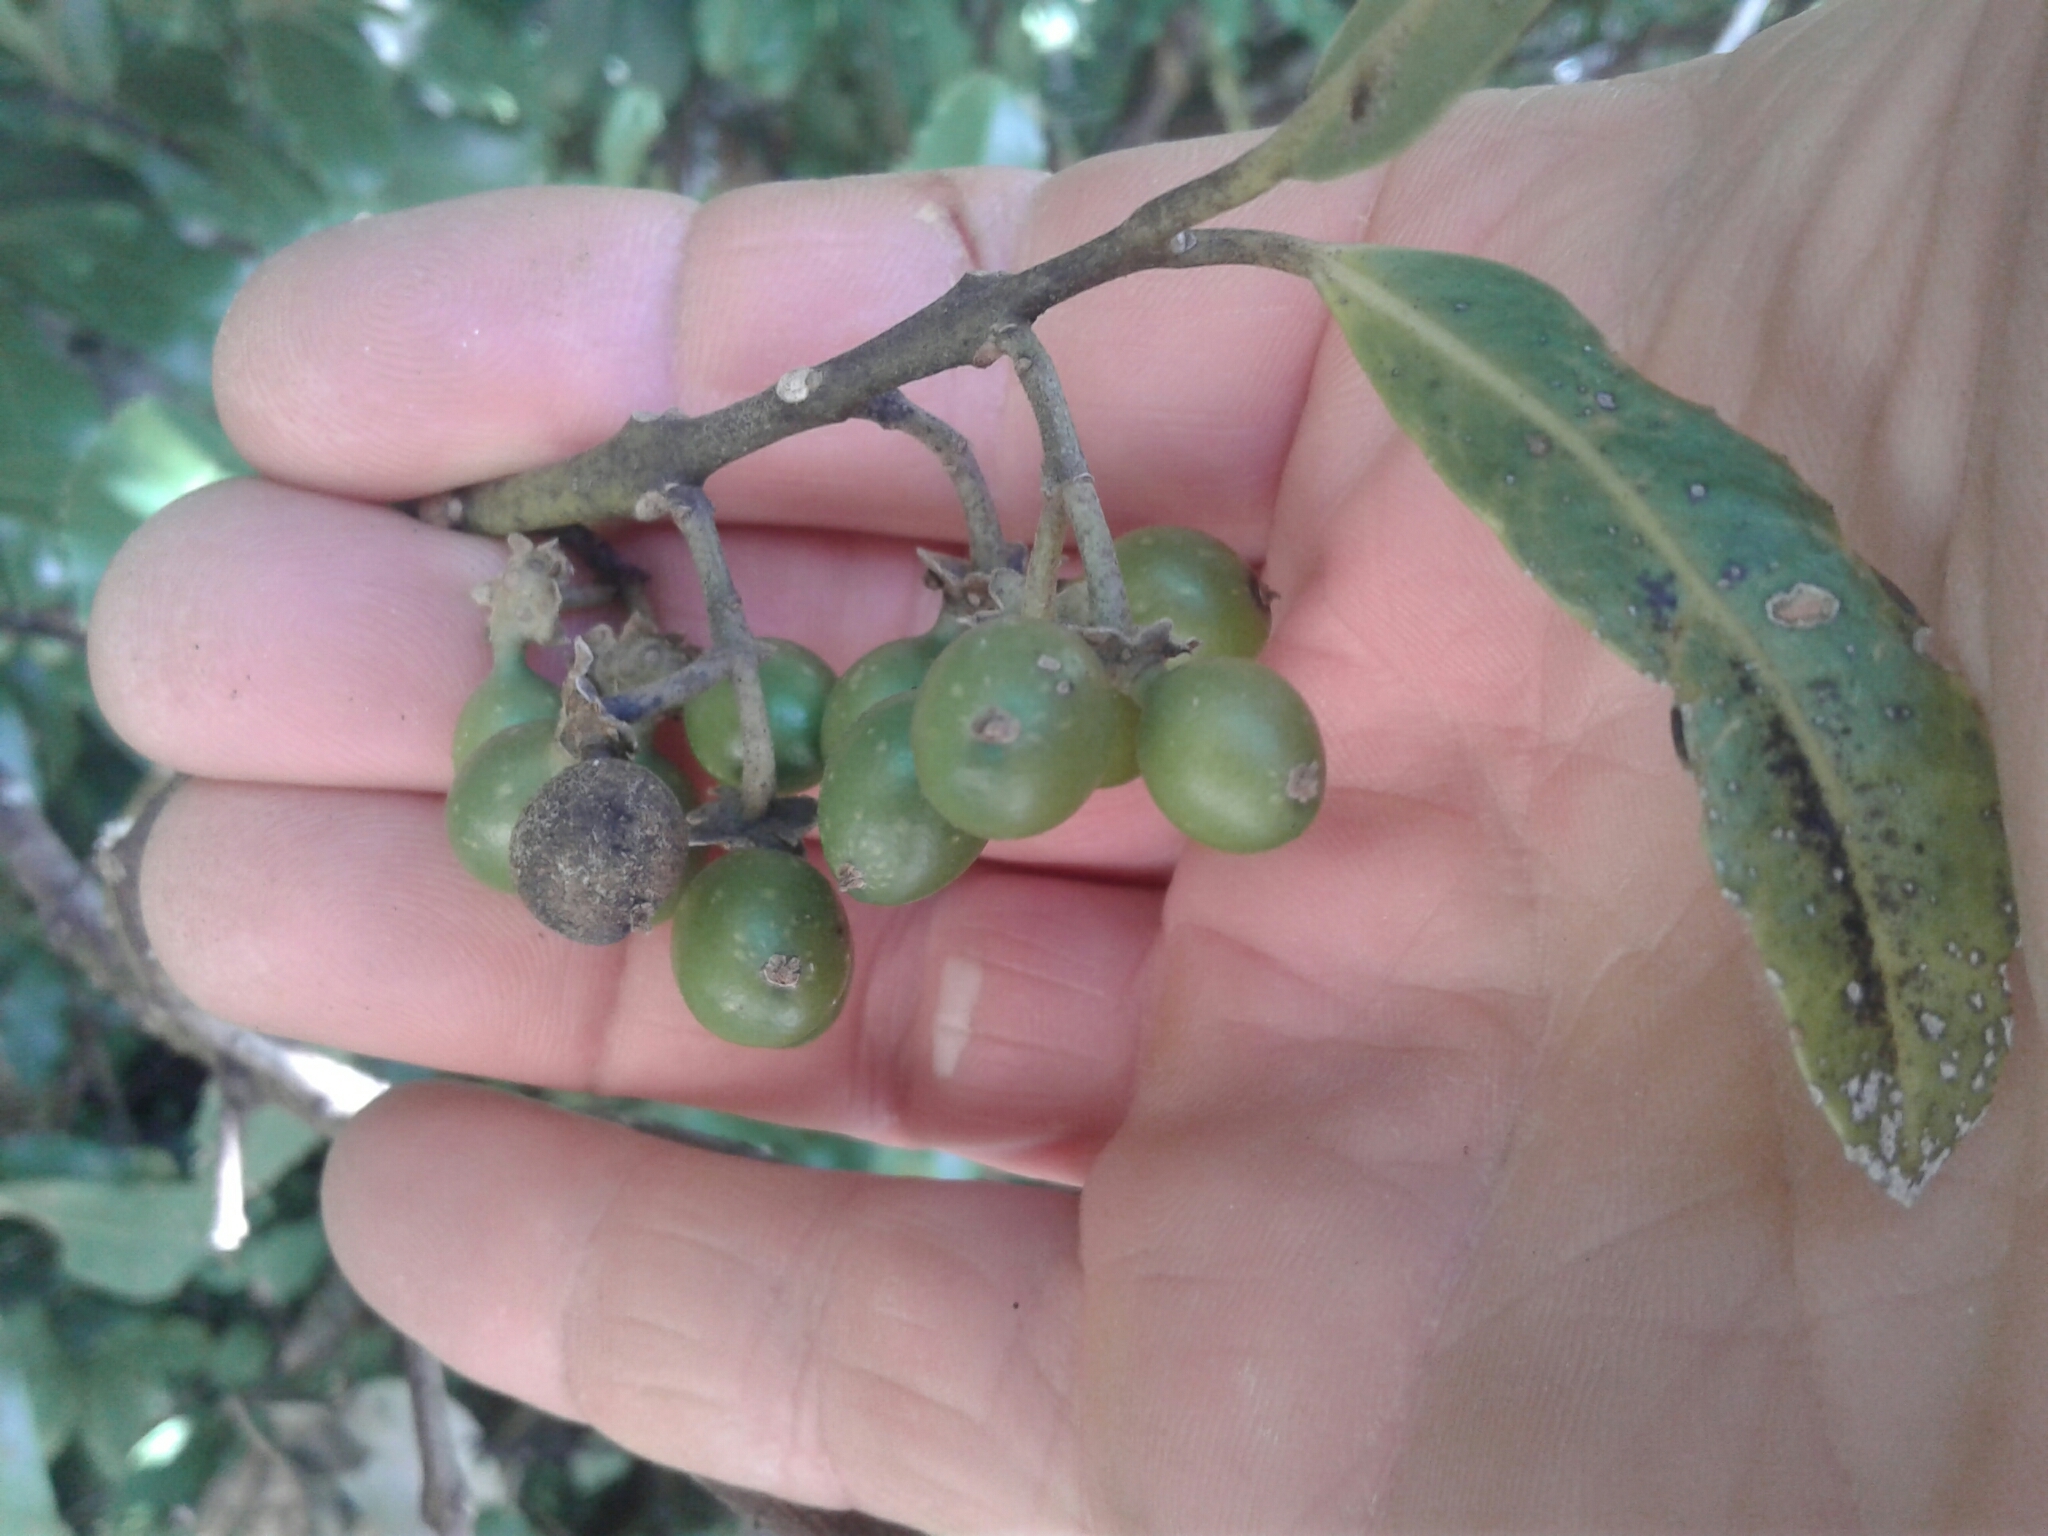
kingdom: Plantae
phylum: Tracheophyta
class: Magnoliopsida
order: Laurales
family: Monimiaceae
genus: Hedycarya
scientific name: Hedycarya arborea
